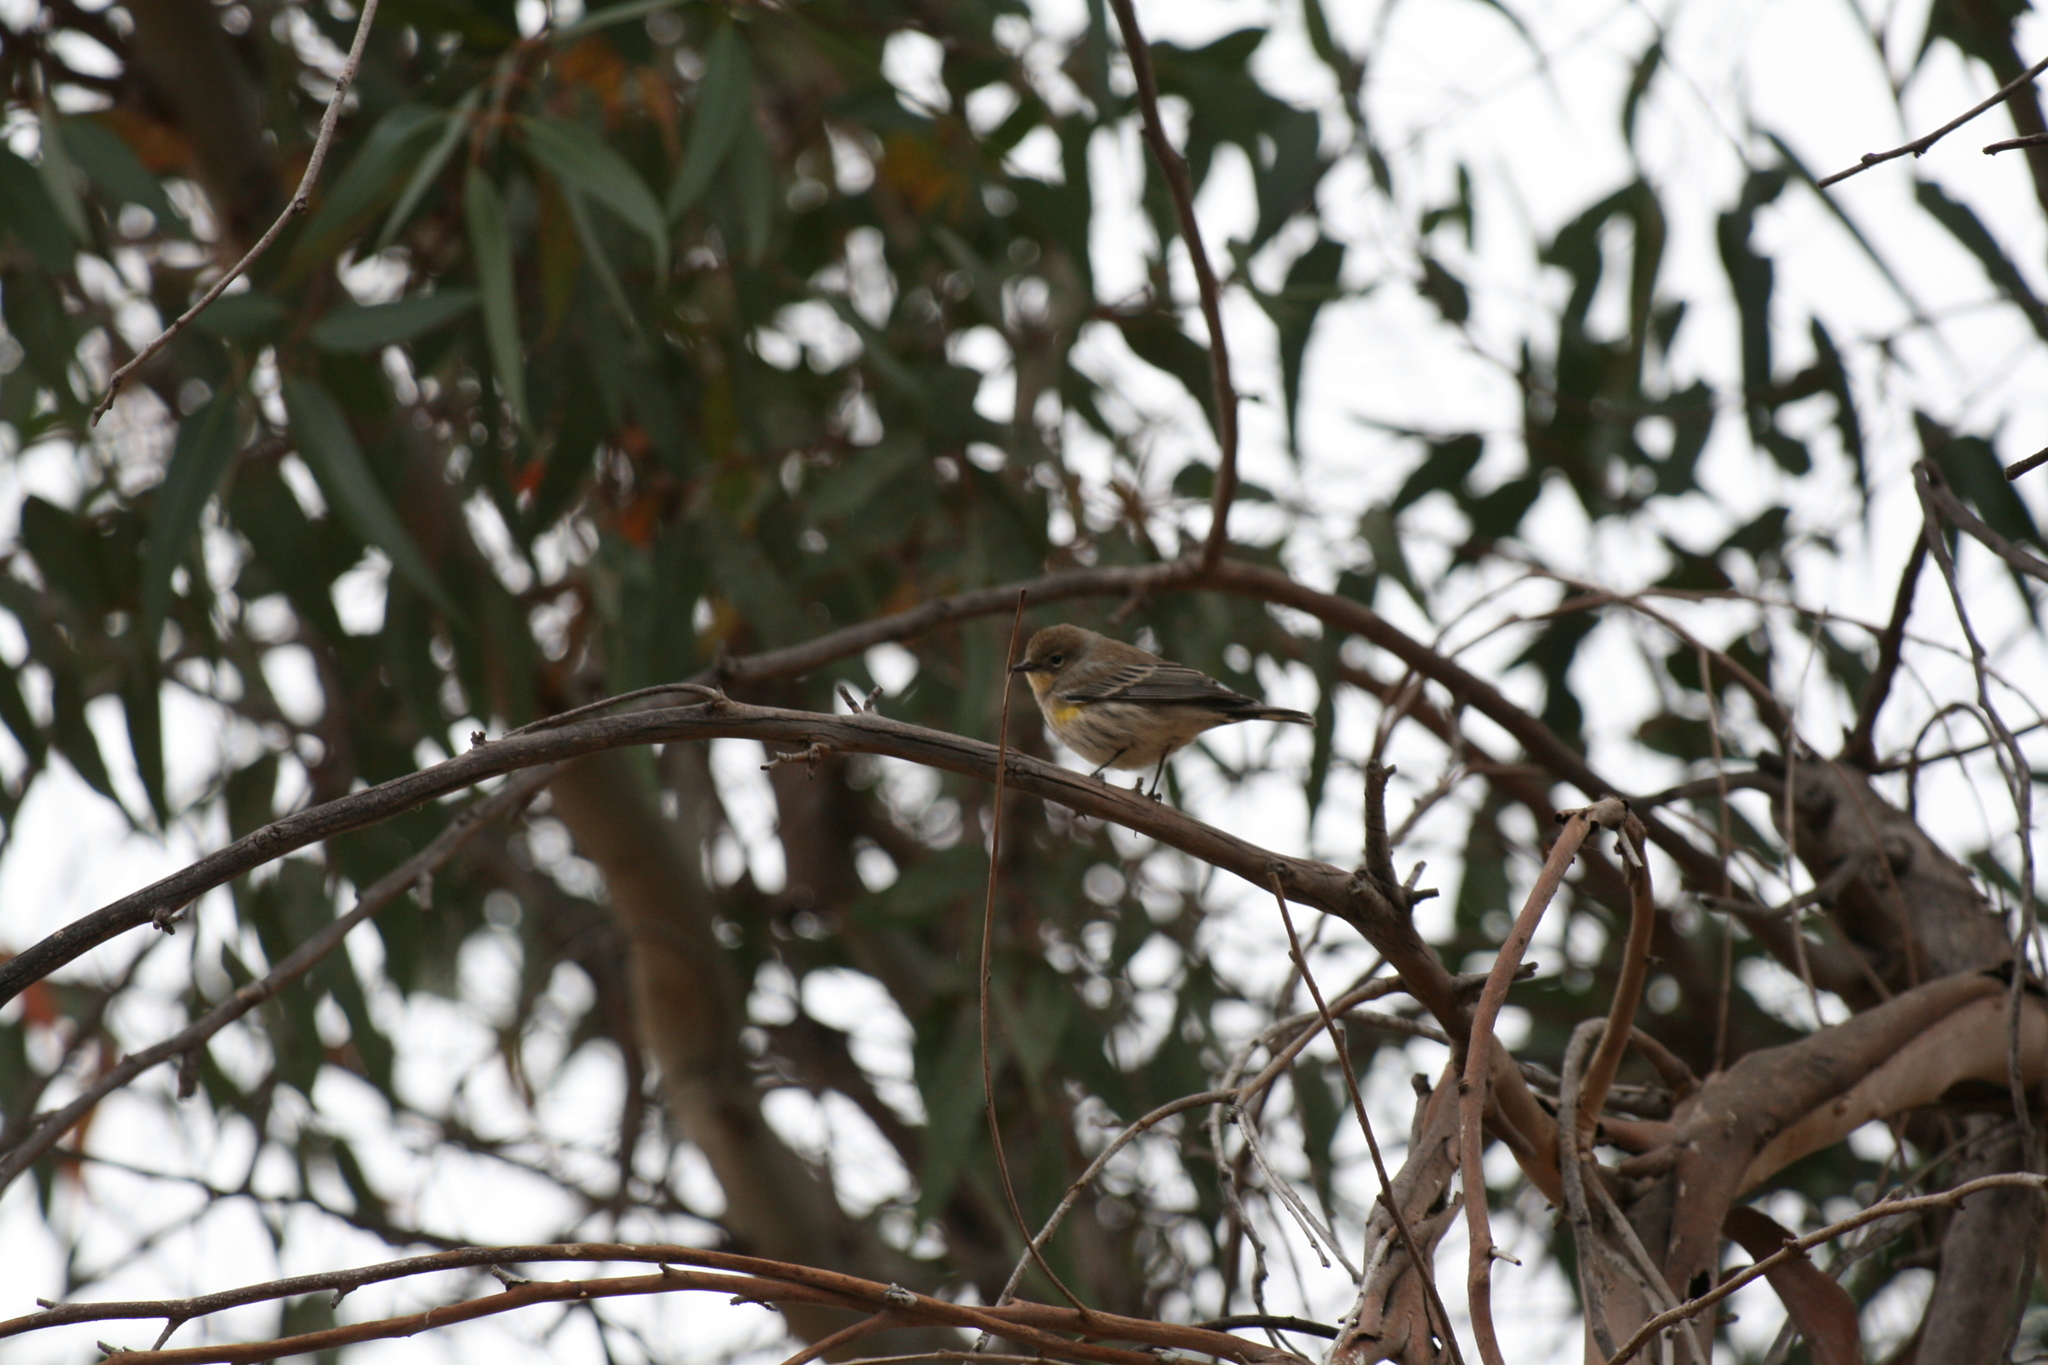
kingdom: Animalia
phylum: Chordata
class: Aves
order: Passeriformes
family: Parulidae
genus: Setophaga
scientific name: Setophaga coronata
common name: Myrtle warbler
